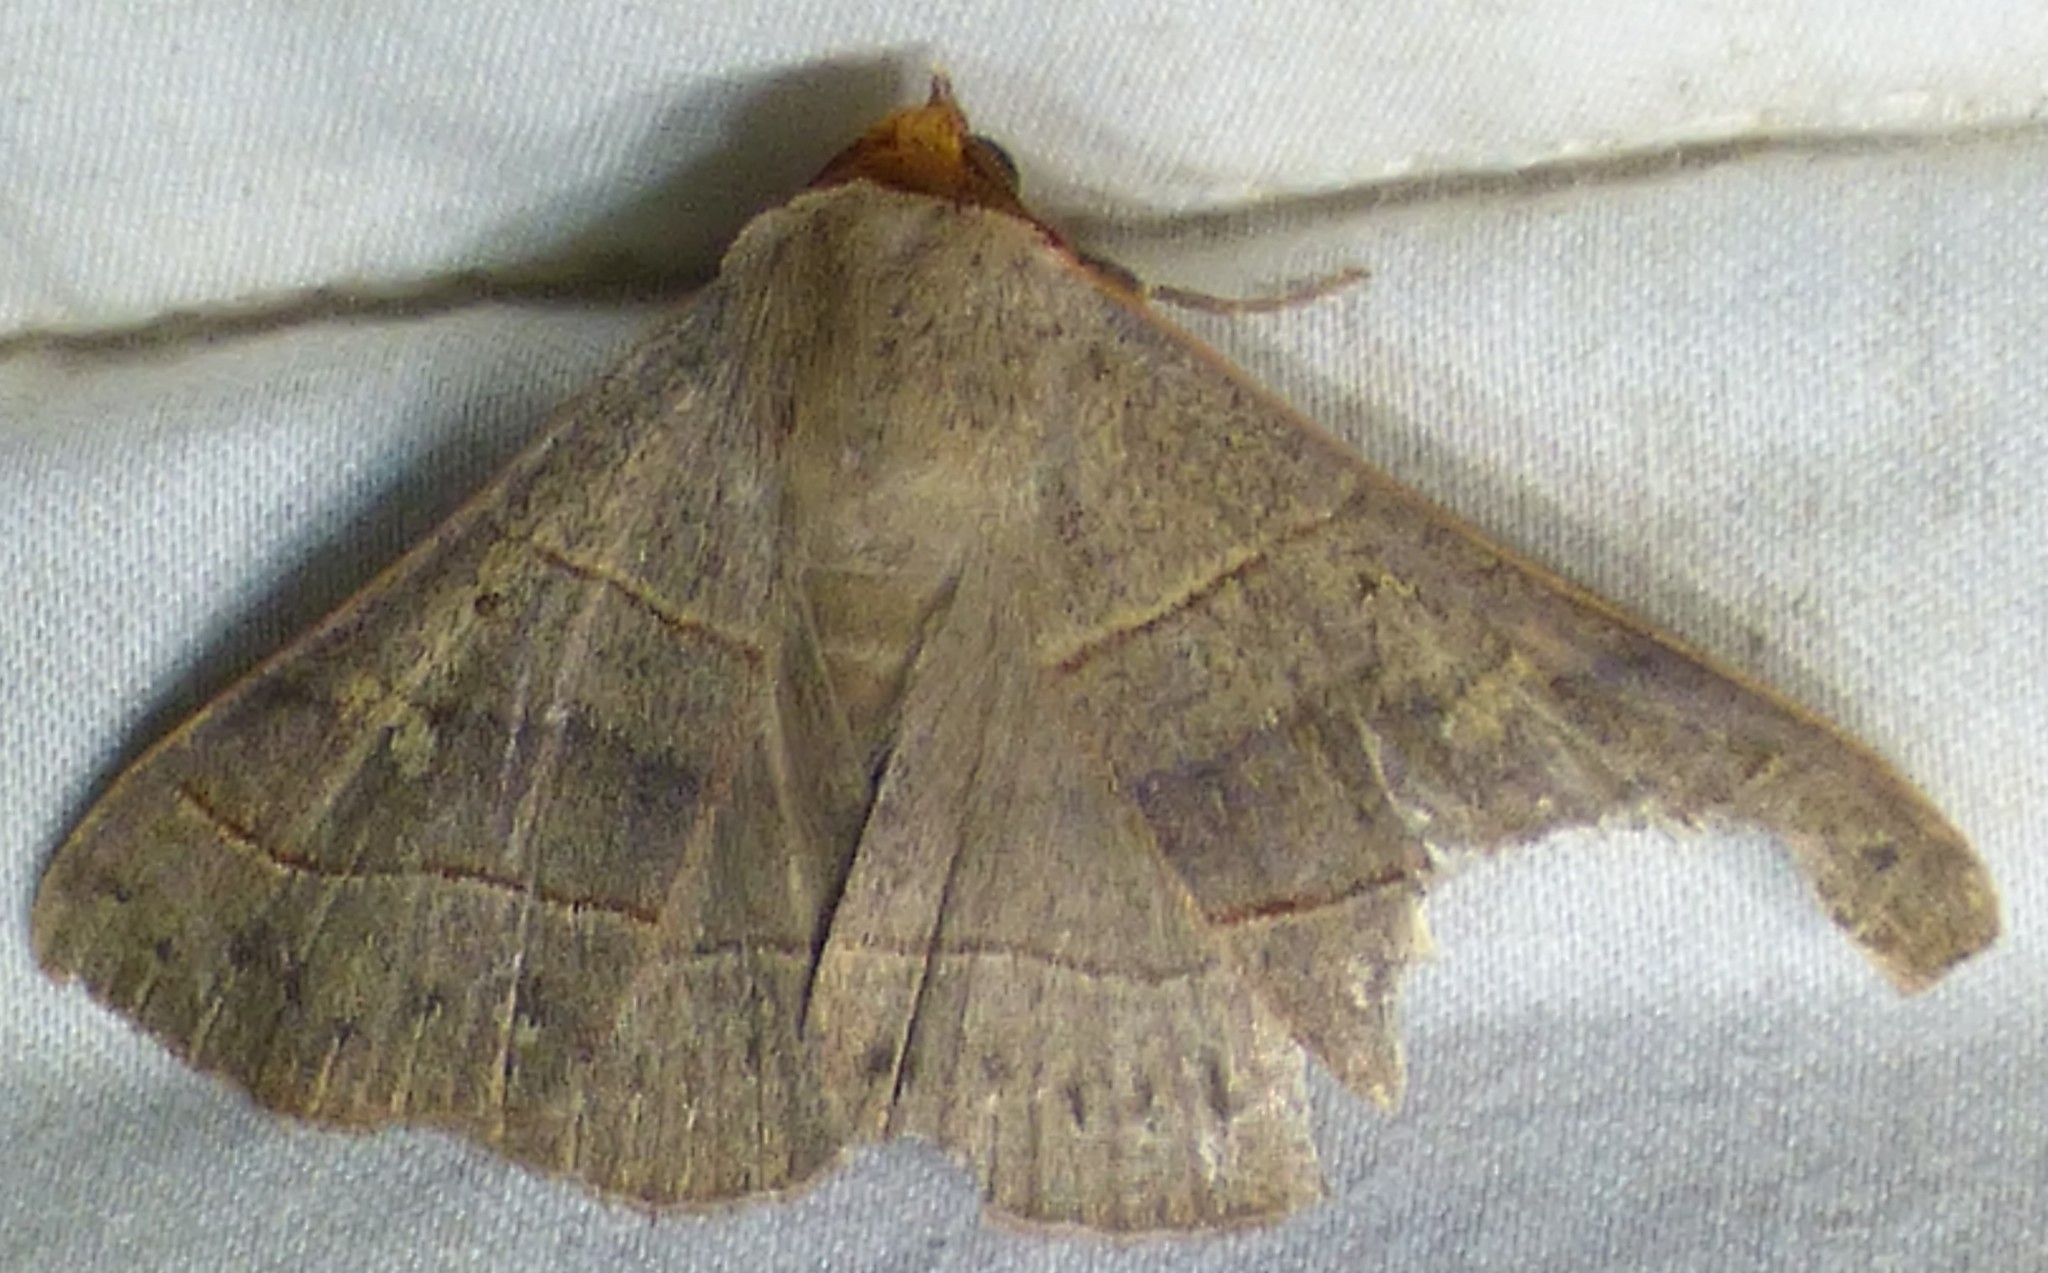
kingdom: Animalia
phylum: Arthropoda
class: Insecta
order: Lepidoptera
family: Erebidae
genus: Panopoda
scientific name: Panopoda rufimargo
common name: Red-lined panopoda moth
